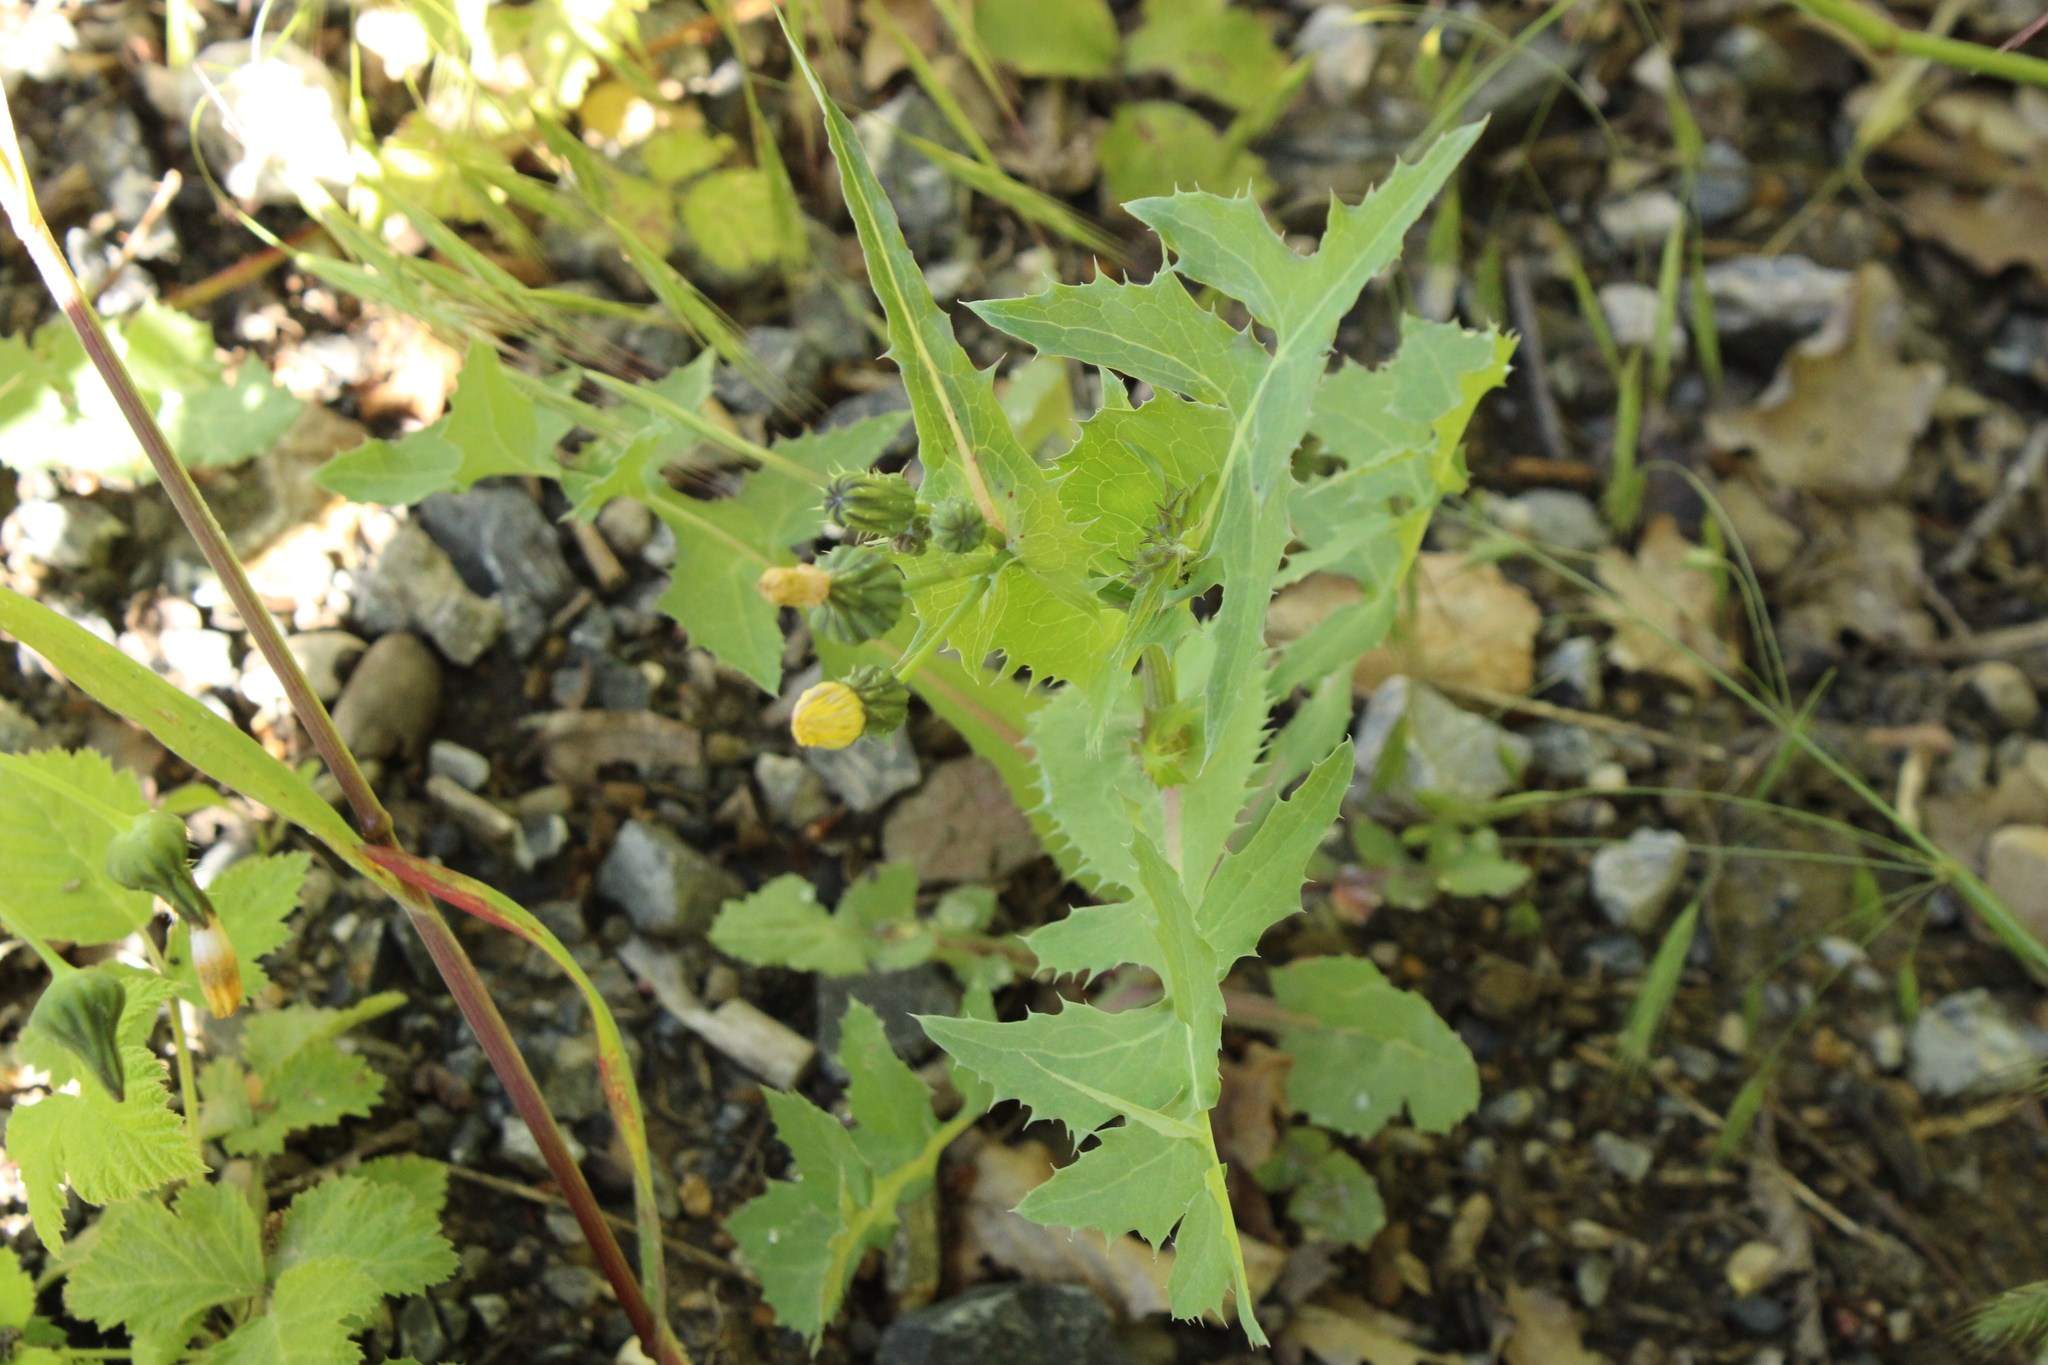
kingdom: Plantae
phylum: Tracheophyta
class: Magnoliopsida
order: Asterales
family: Asteraceae
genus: Sonchus
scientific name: Sonchus asper
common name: Prickly sow-thistle
